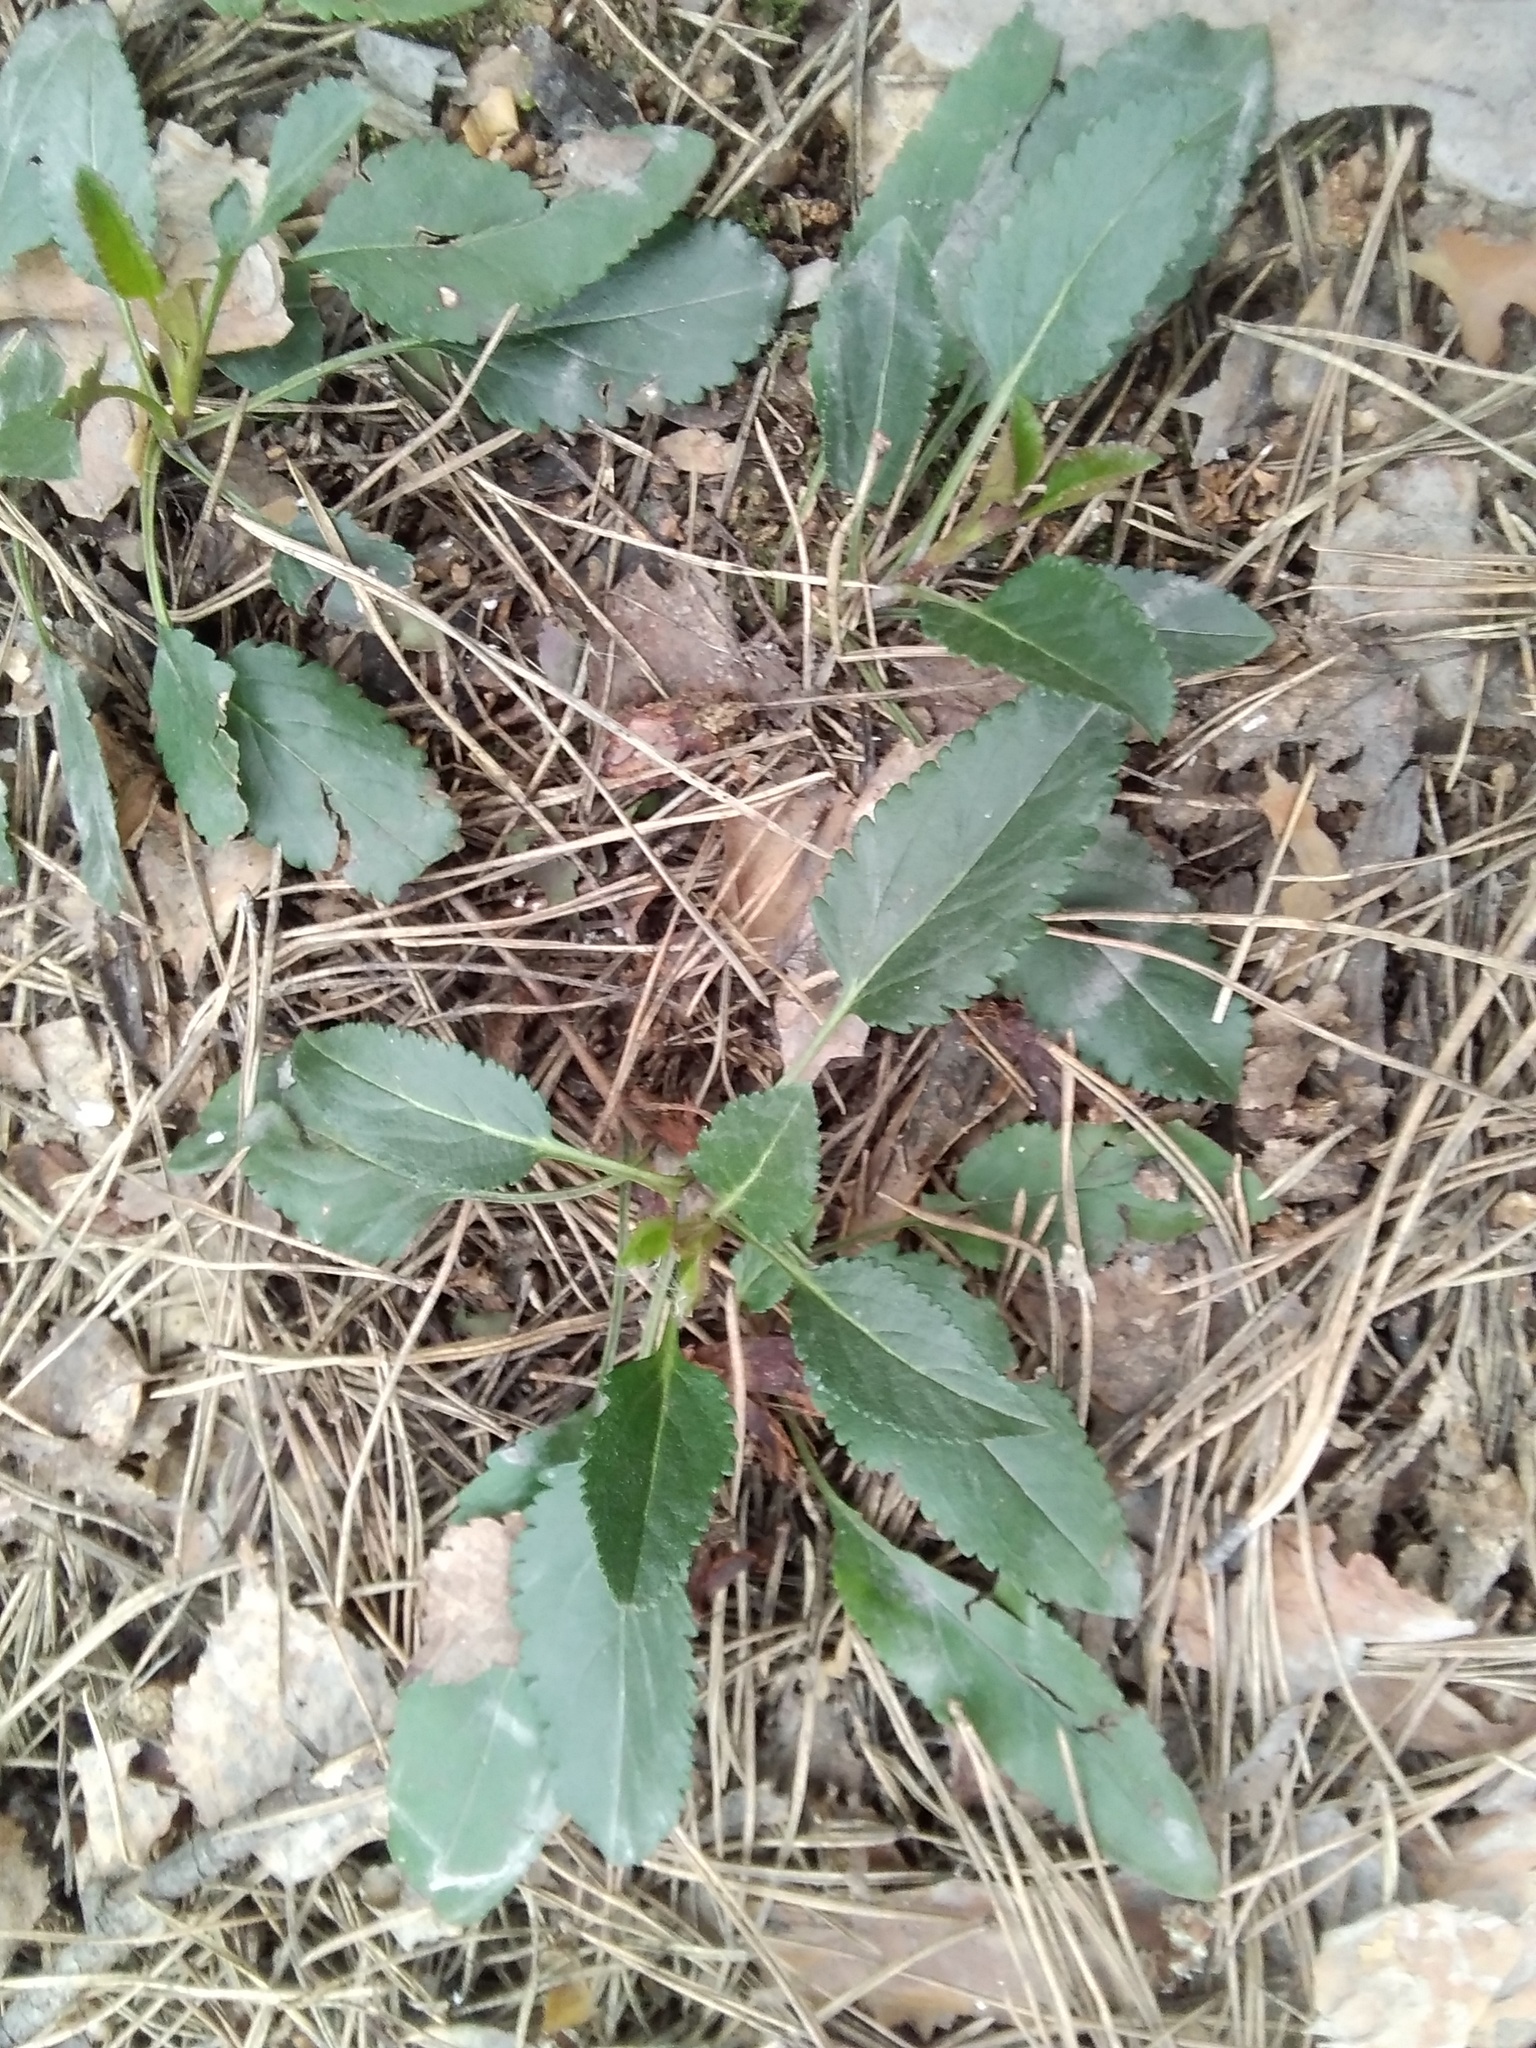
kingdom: Plantae
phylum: Tracheophyta
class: Magnoliopsida
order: Lamiales
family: Plantaginaceae
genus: Veronica
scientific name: Veronica spicata
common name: Spiked speedwell
